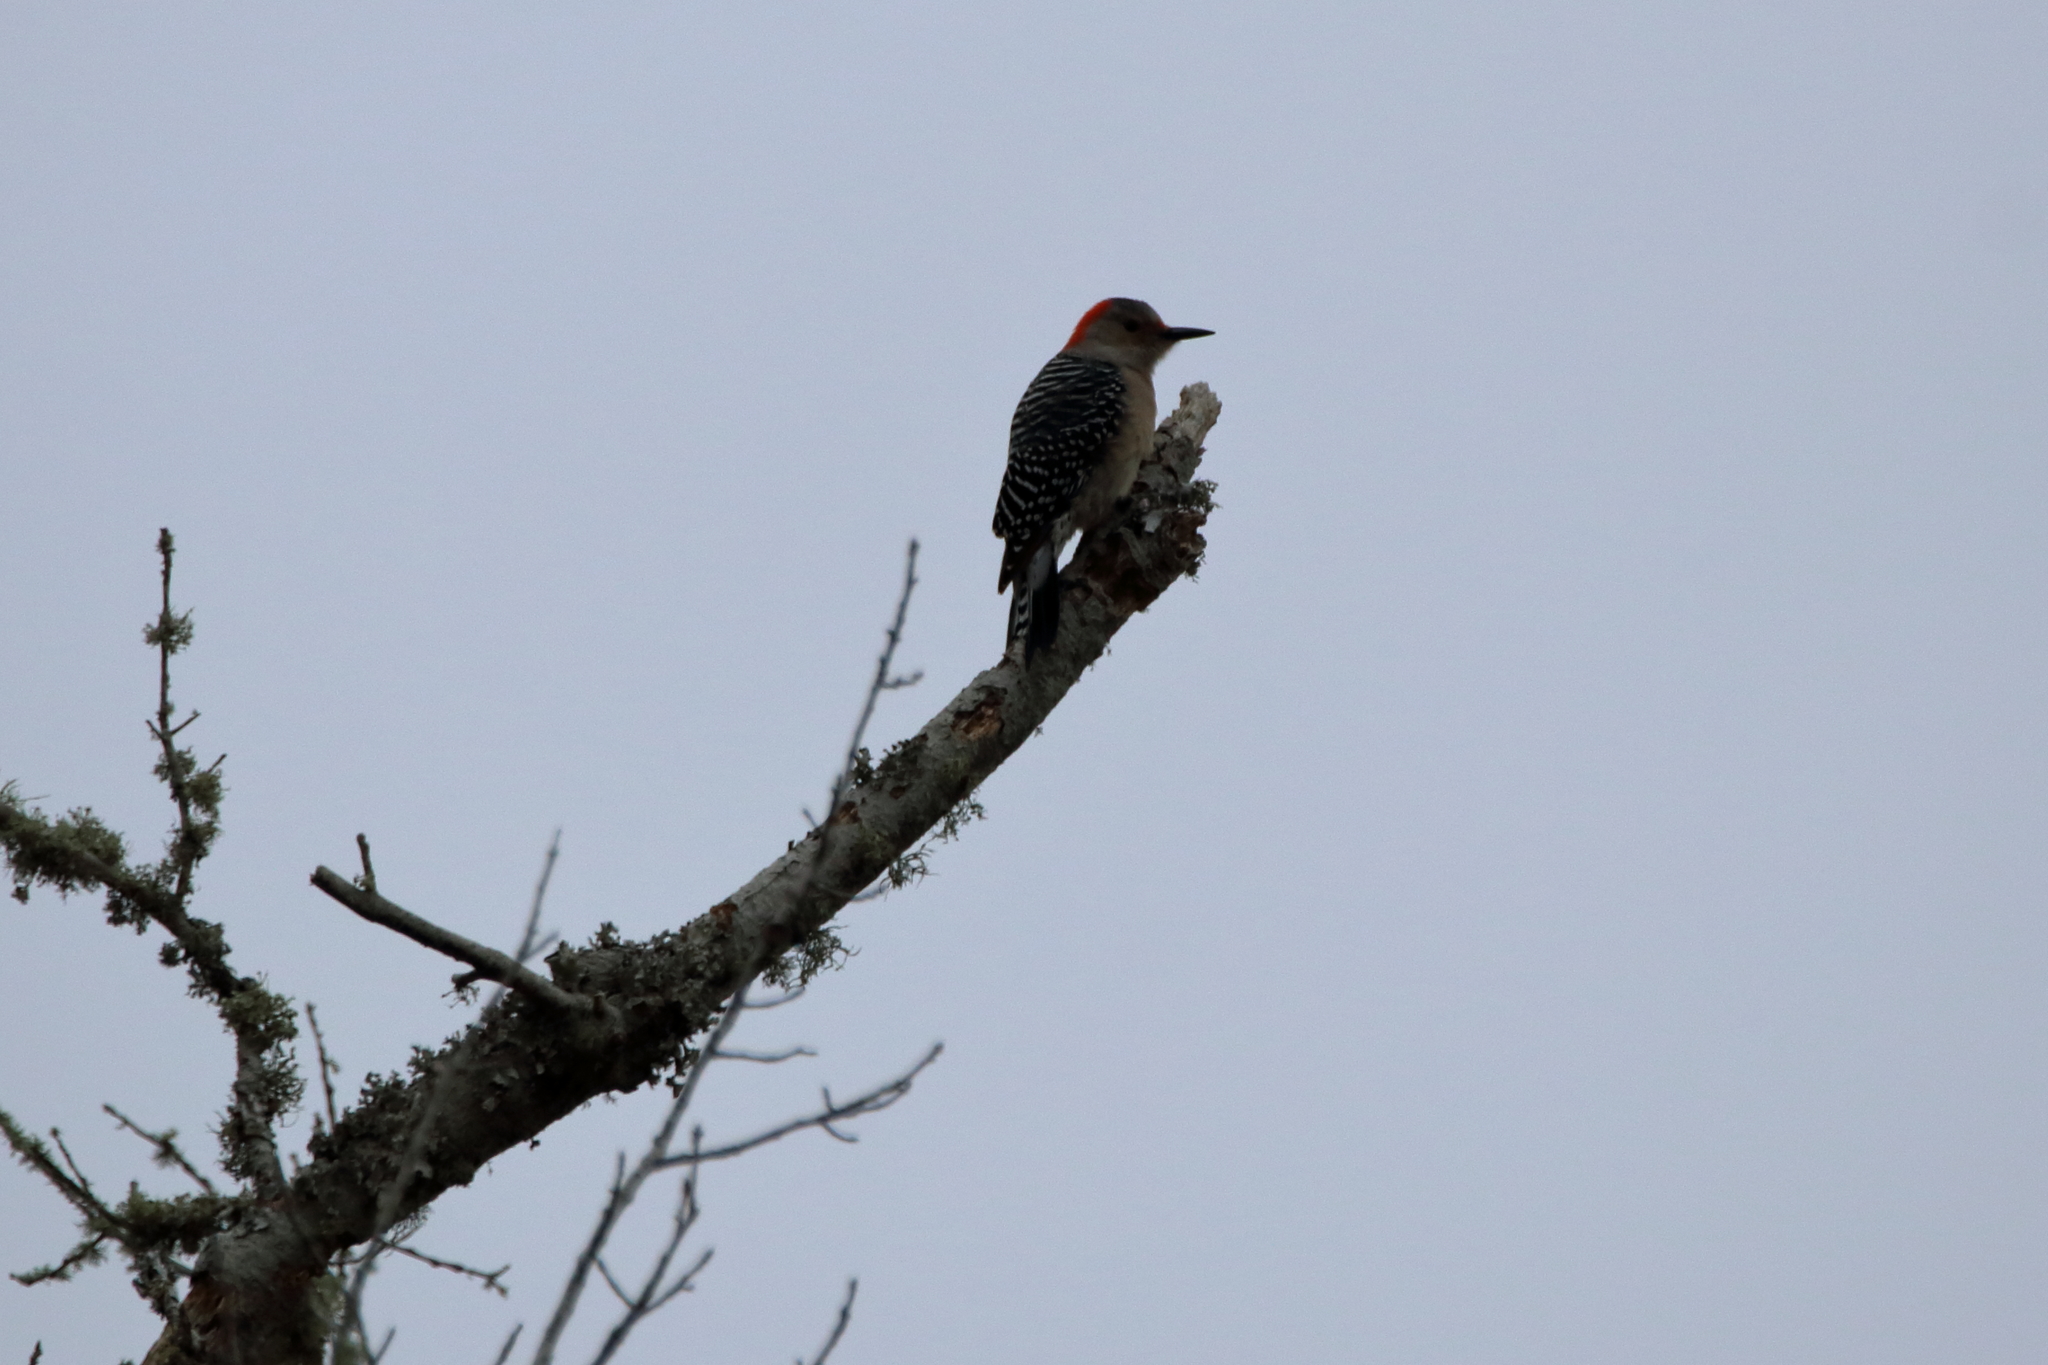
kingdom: Animalia
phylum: Chordata
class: Aves
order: Piciformes
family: Picidae
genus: Melanerpes
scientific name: Melanerpes carolinus
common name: Red-bellied woodpecker
